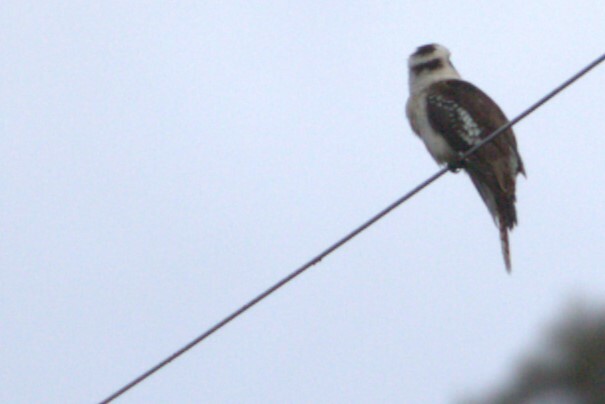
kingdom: Animalia
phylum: Chordata
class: Aves
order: Coraciiformes
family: Alcedinidae
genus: Dacelo
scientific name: Dacelo novaeguineae
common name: Laughing kookaburra
